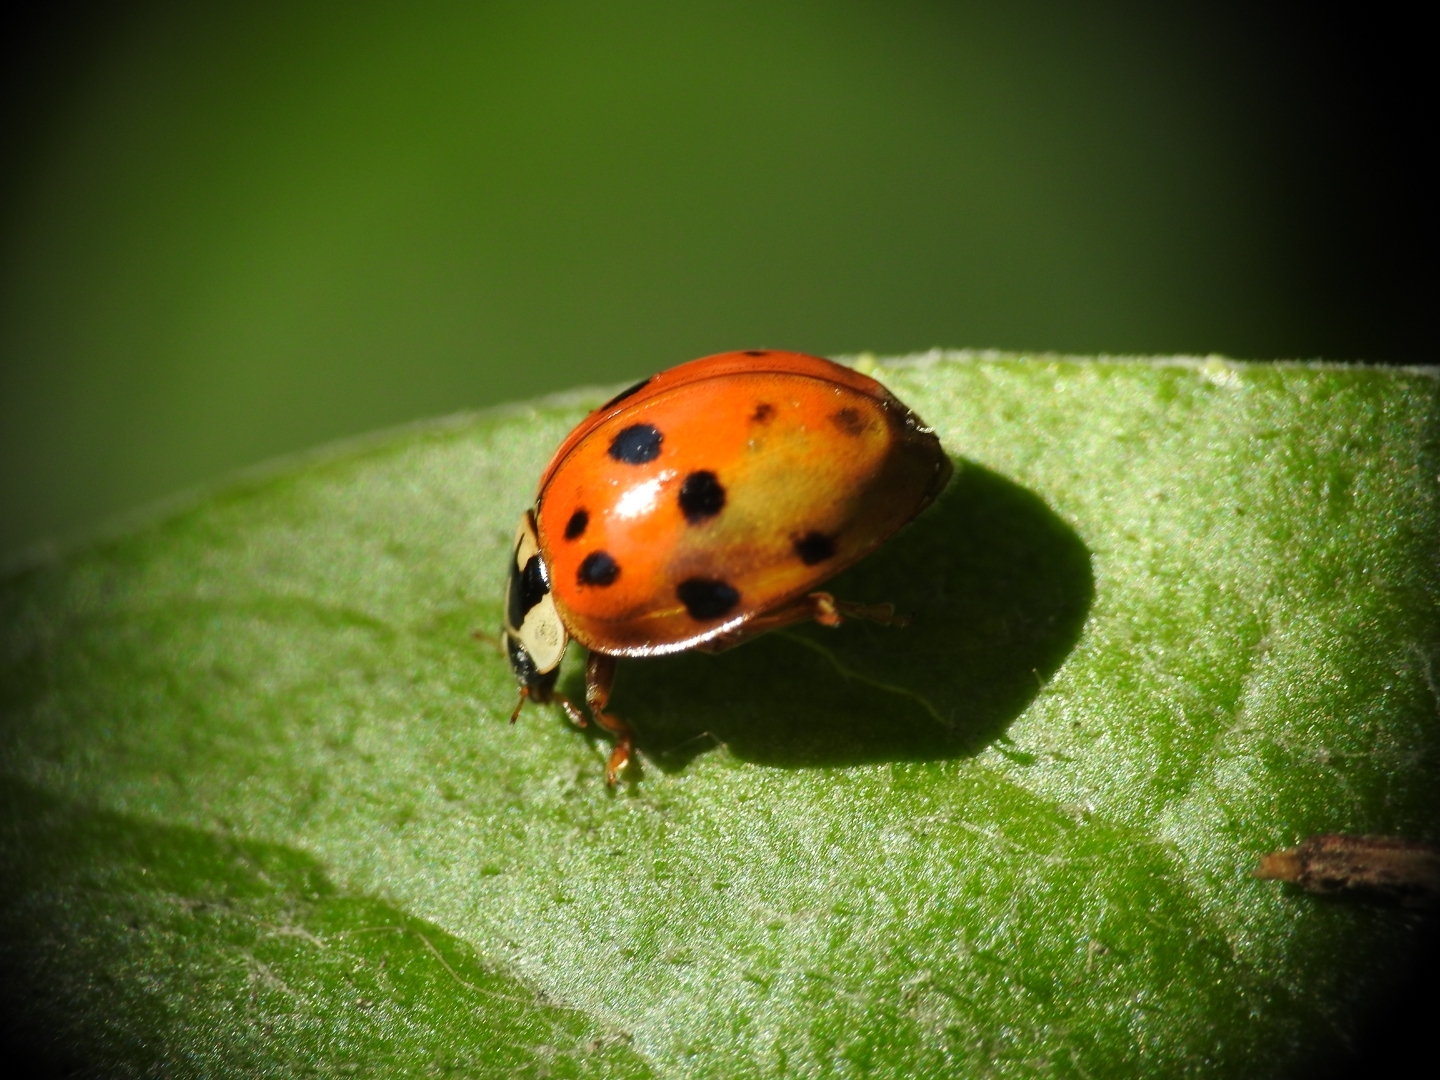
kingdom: Animalia
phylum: Arthropoda
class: Insecta
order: Coleoptera
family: Coccinellidae
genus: Harmonia
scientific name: Harmonia axyridis
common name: Harlequin ladybird
